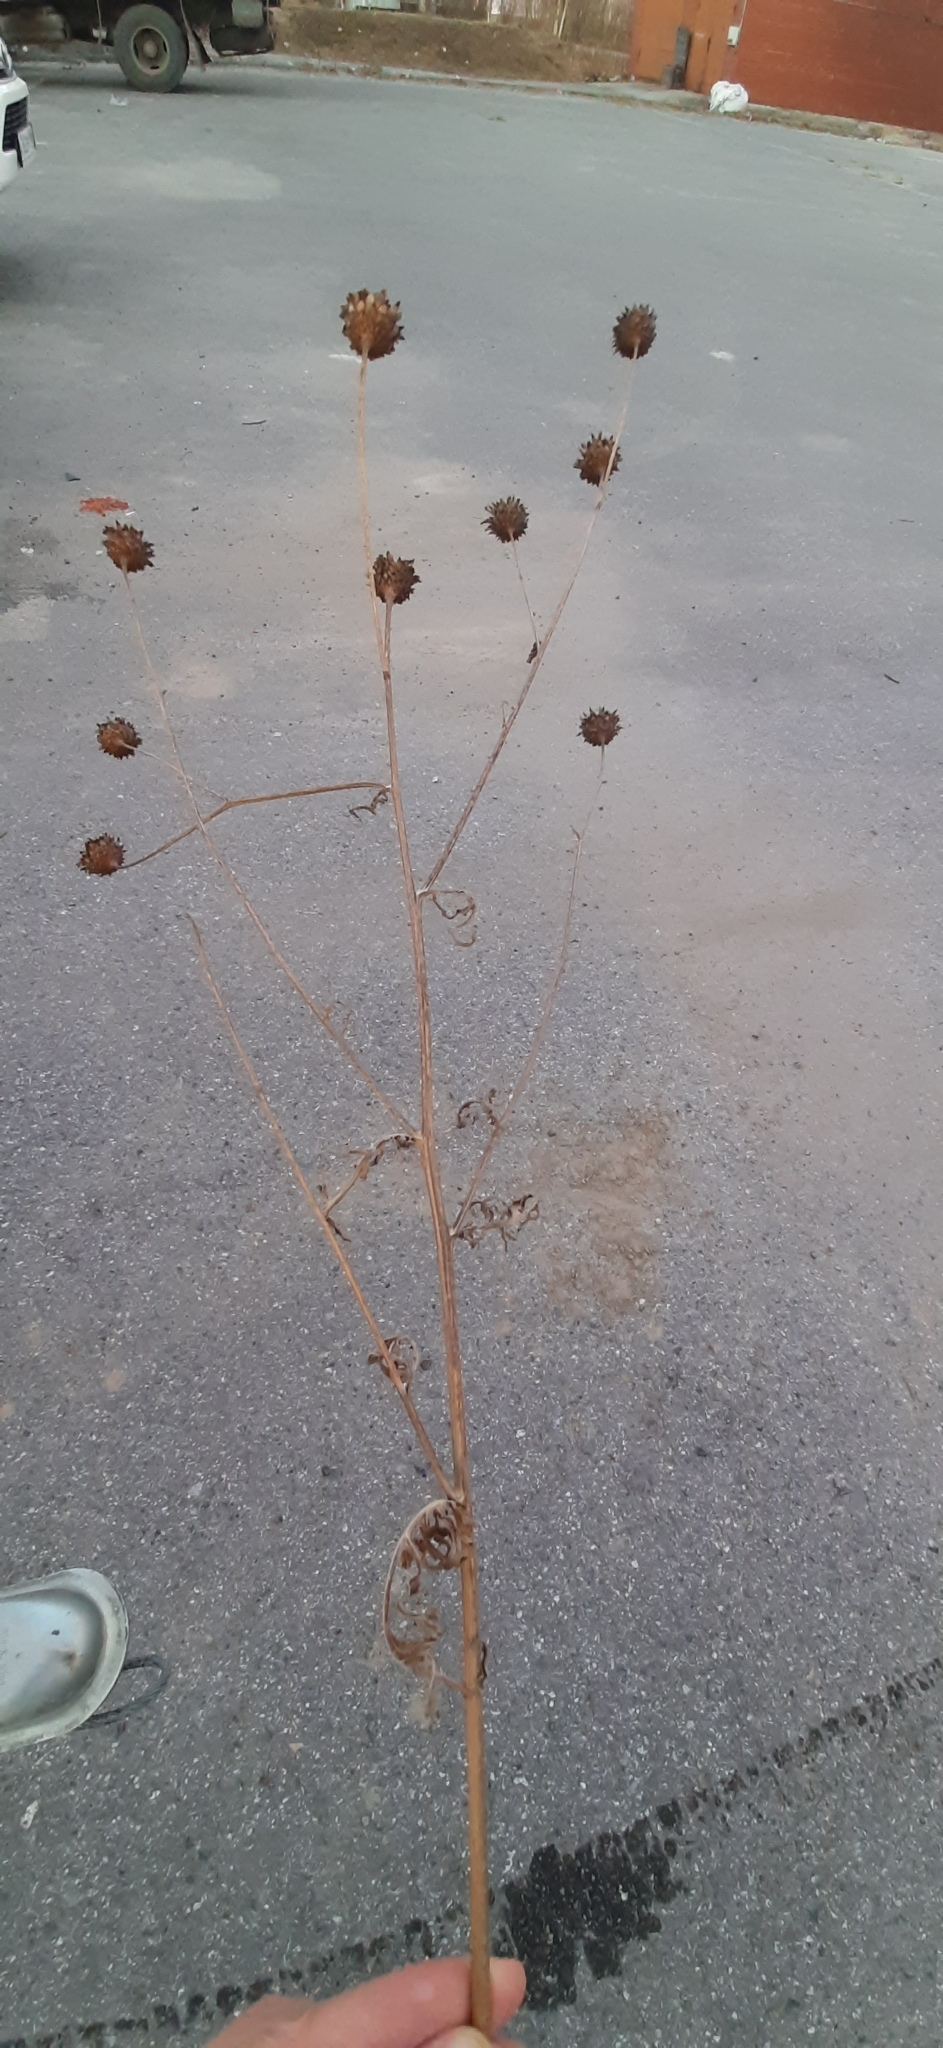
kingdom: Plantae
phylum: Tracheophyta
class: Magnoliopsida
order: Asterales
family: Asteraceae
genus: Centaurea
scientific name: Centaurea scabiosa
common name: Greater knapweed
